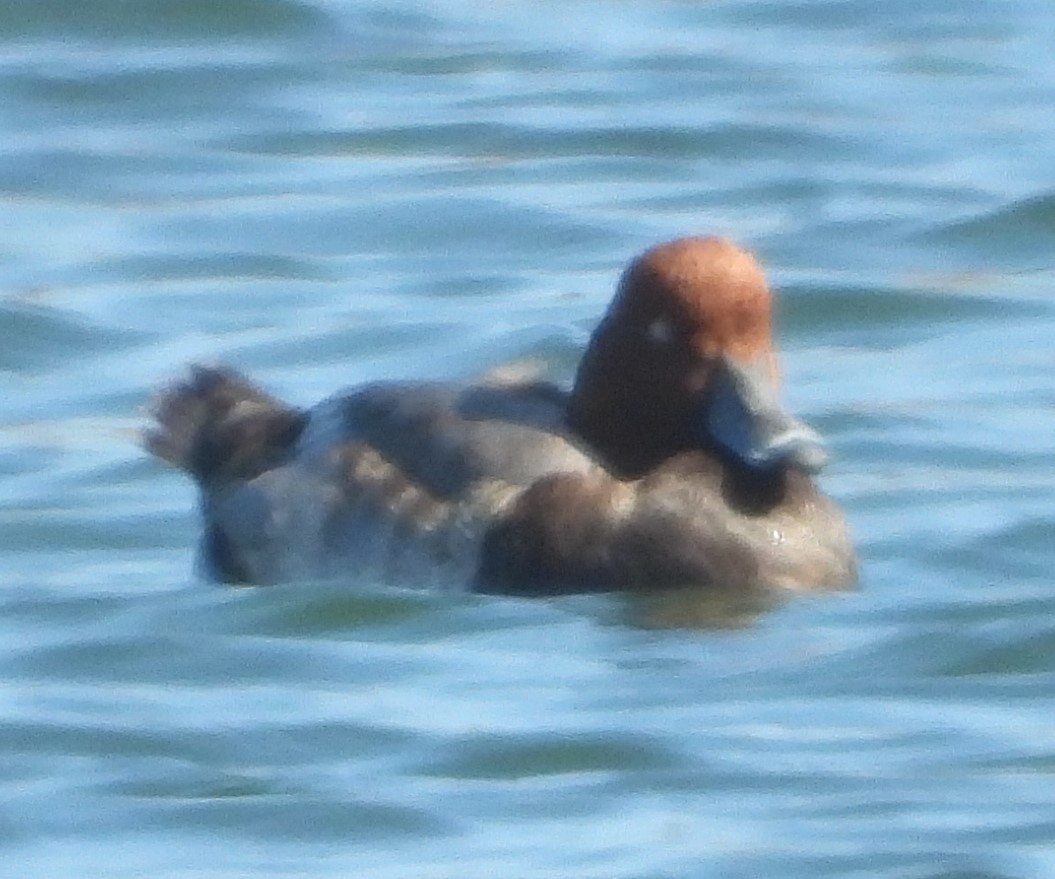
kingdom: Animalia
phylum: Chordata
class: Aves
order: Anseriformes
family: Anatidae
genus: Aythya
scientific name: Aythya americana
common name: Redhead
